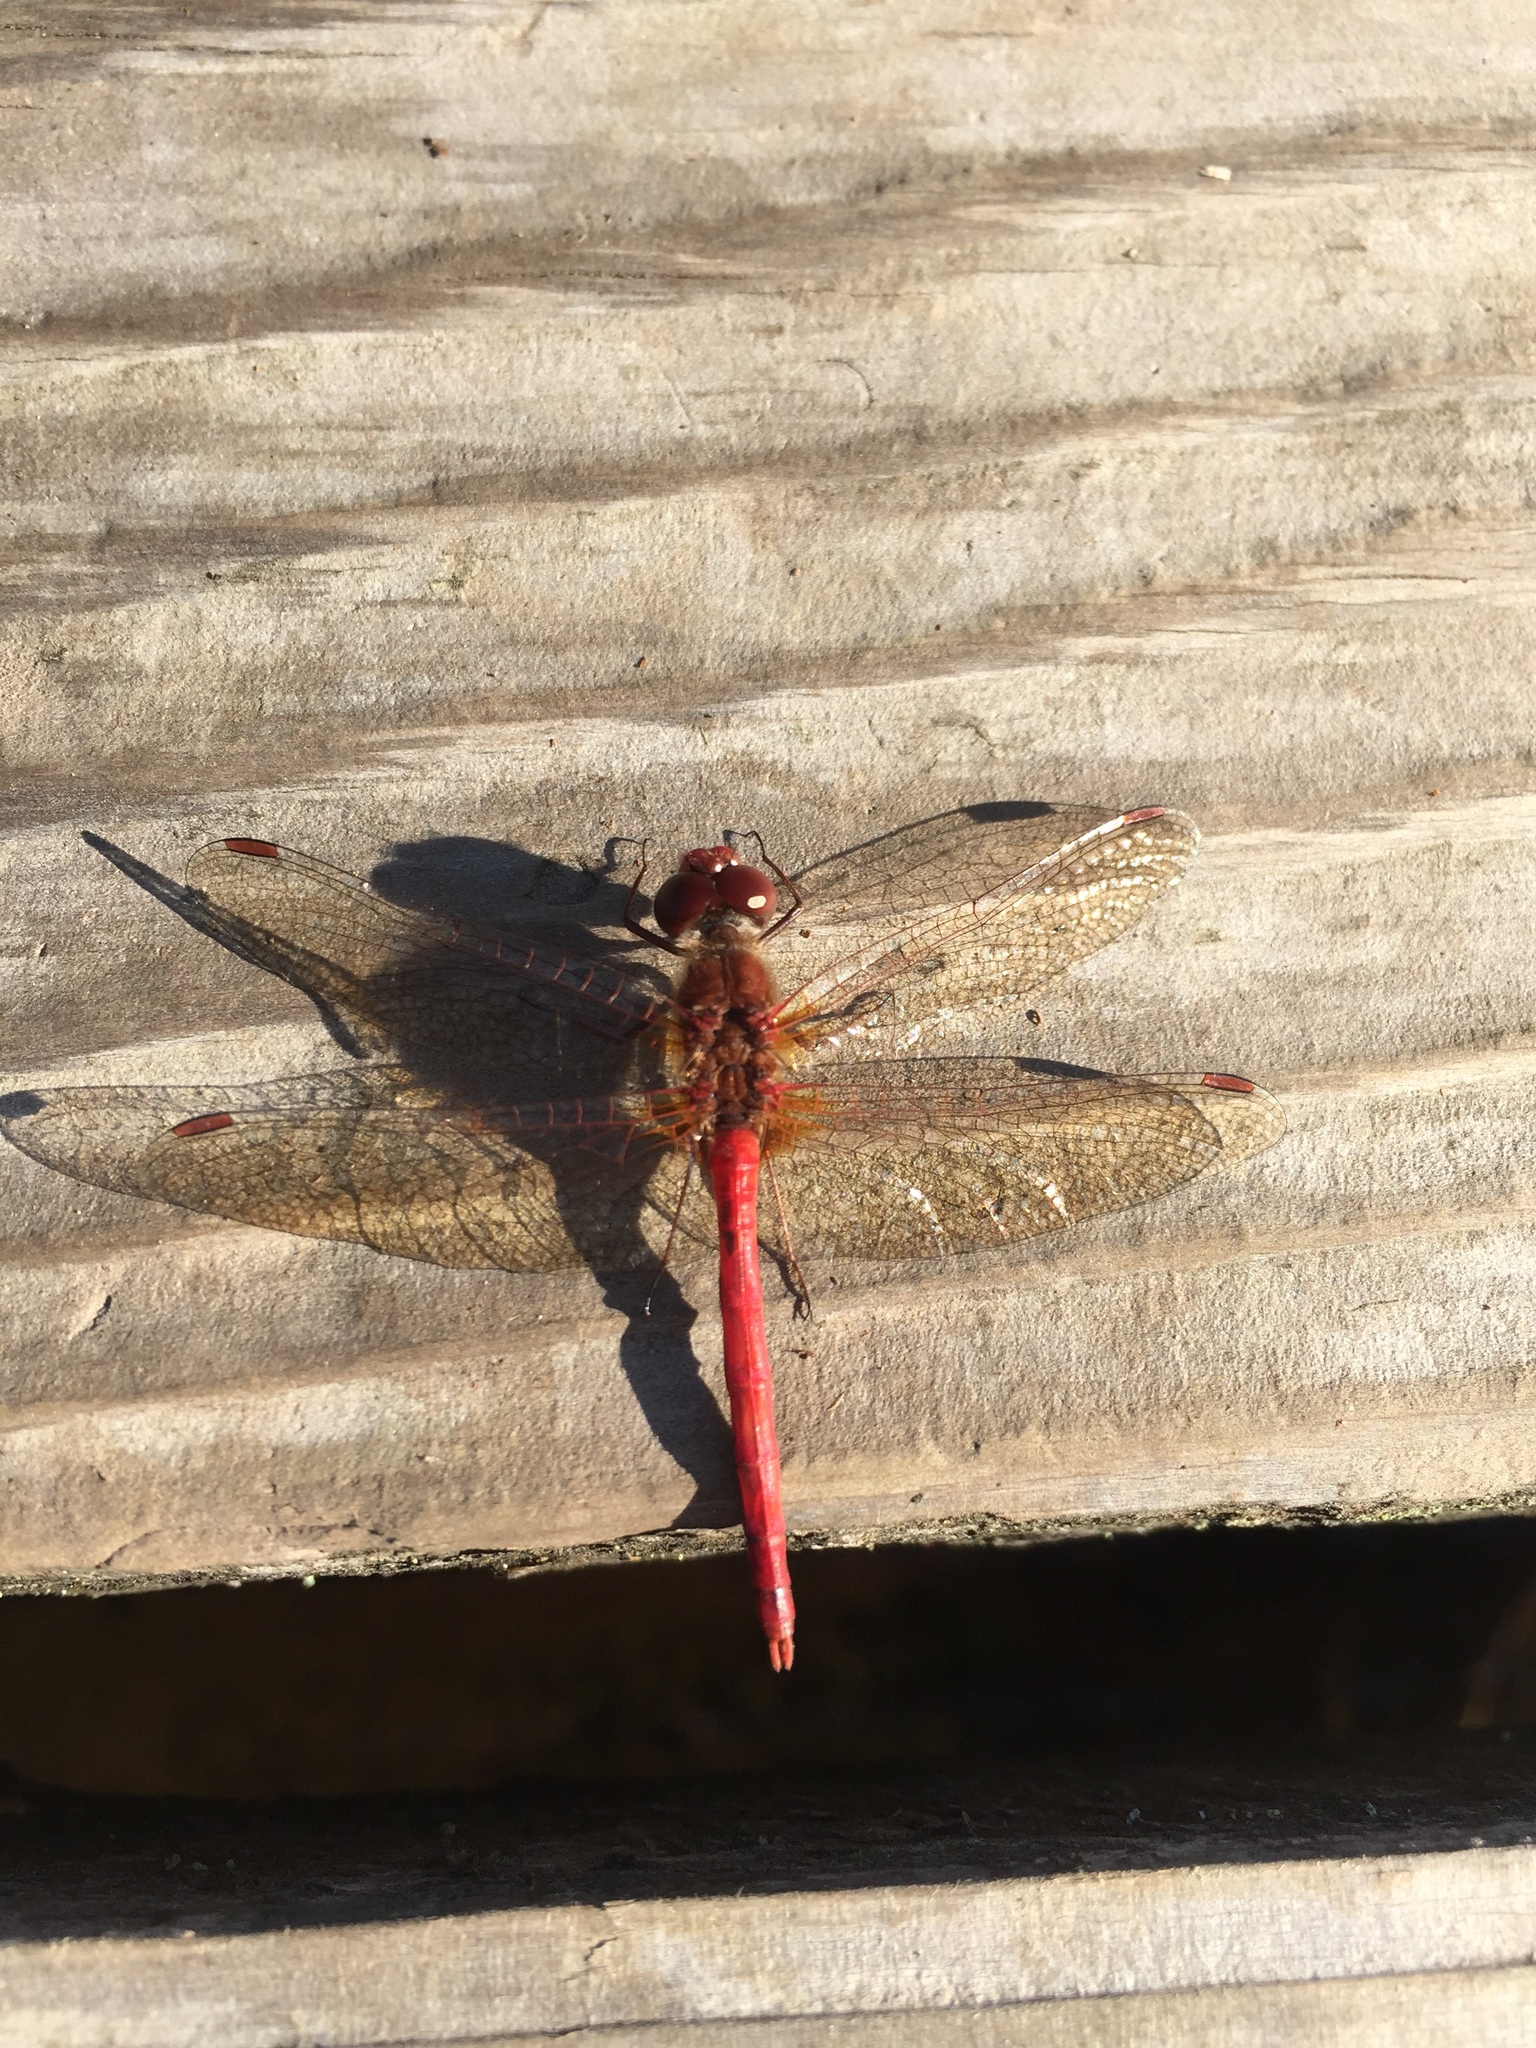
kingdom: Animalia
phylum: Arthropoda
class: Insecta
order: Odonata
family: Libellulidae
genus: Sympetrum
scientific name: Sympetrum vicinum
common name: Autumn meadowhawk
